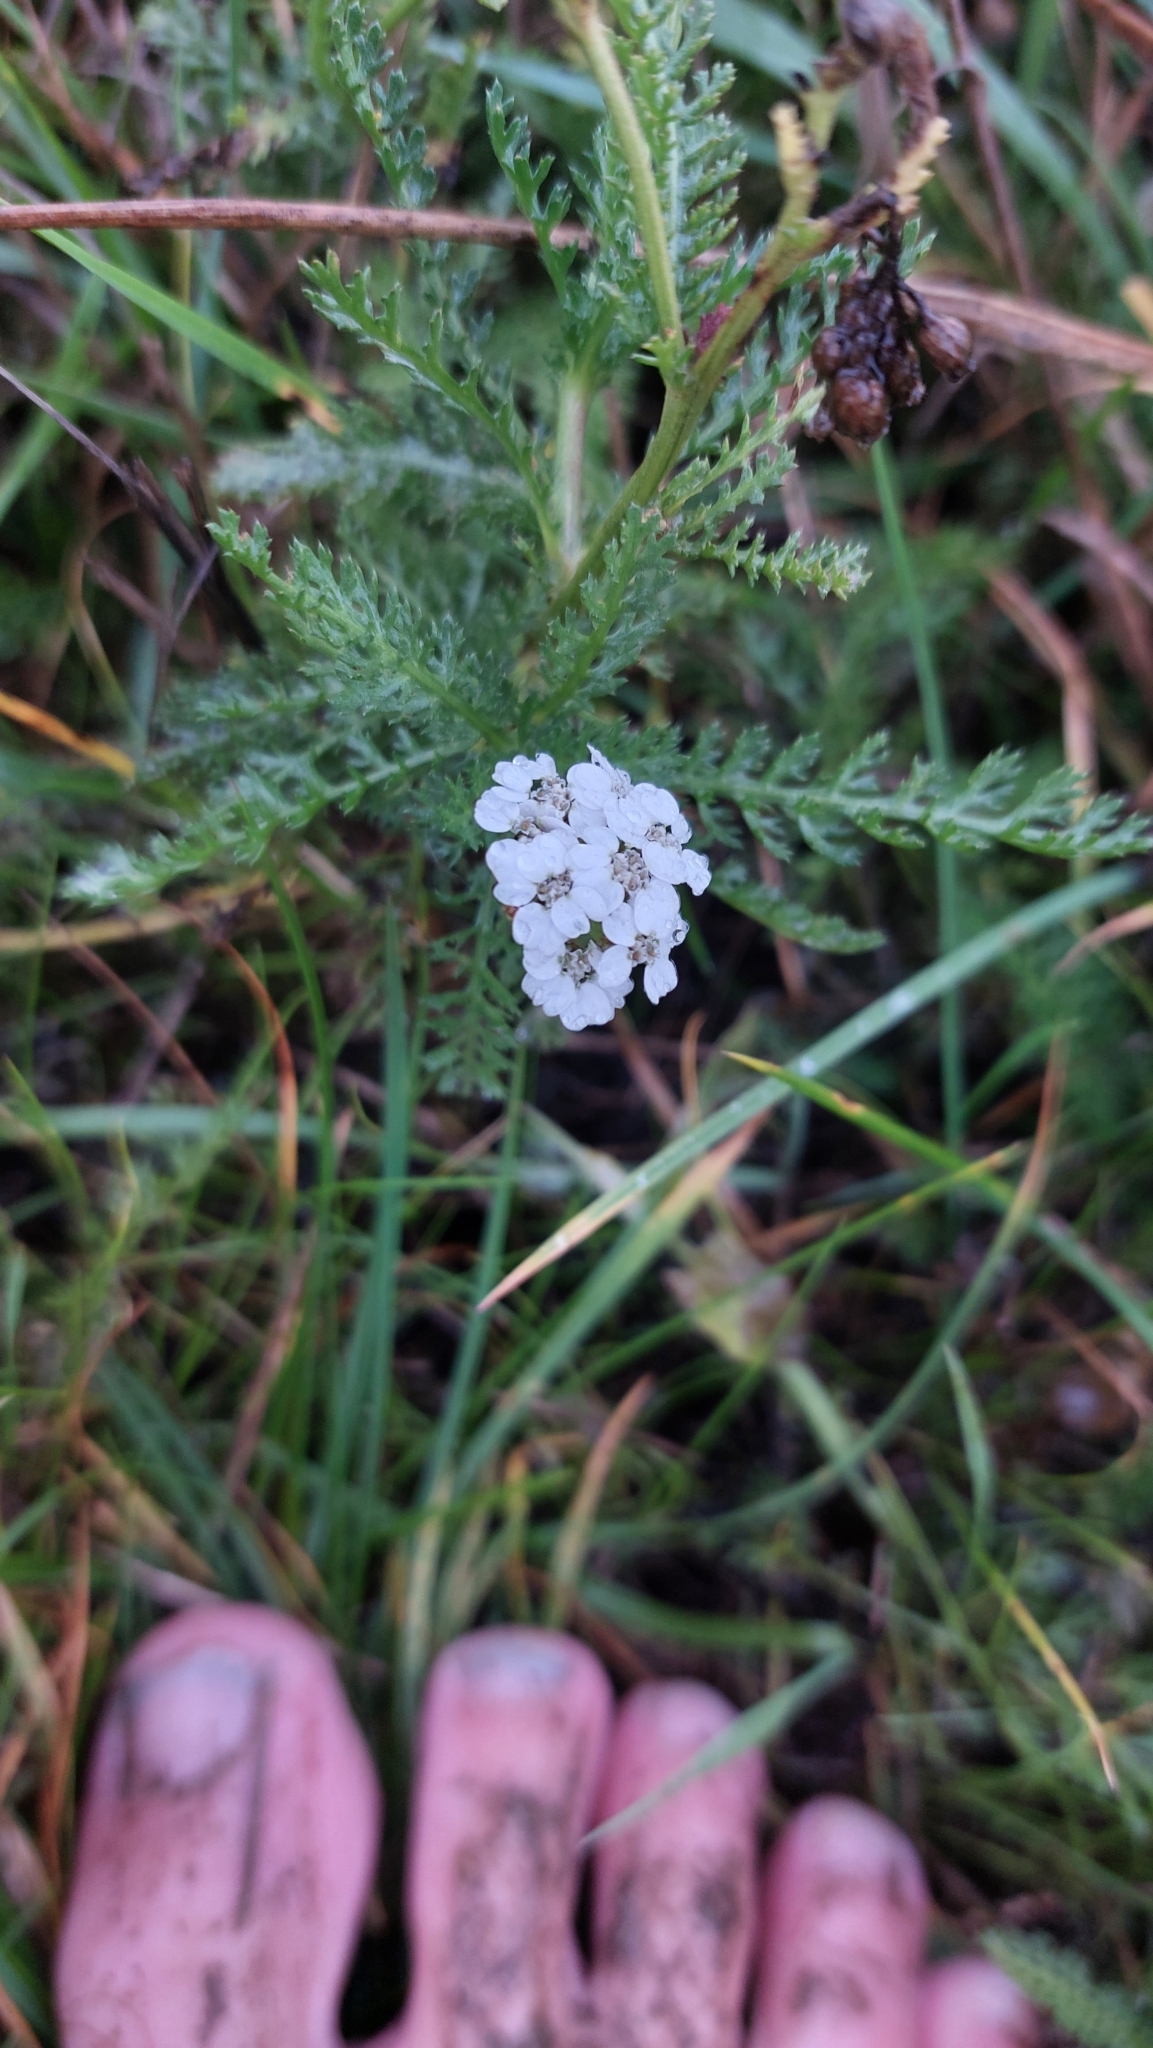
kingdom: Plantae
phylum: Tracheophyta
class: Magnoliopsida
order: Asterales
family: Asteraceae
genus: Achillea
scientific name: Achillea millefolium
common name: Yarrow
